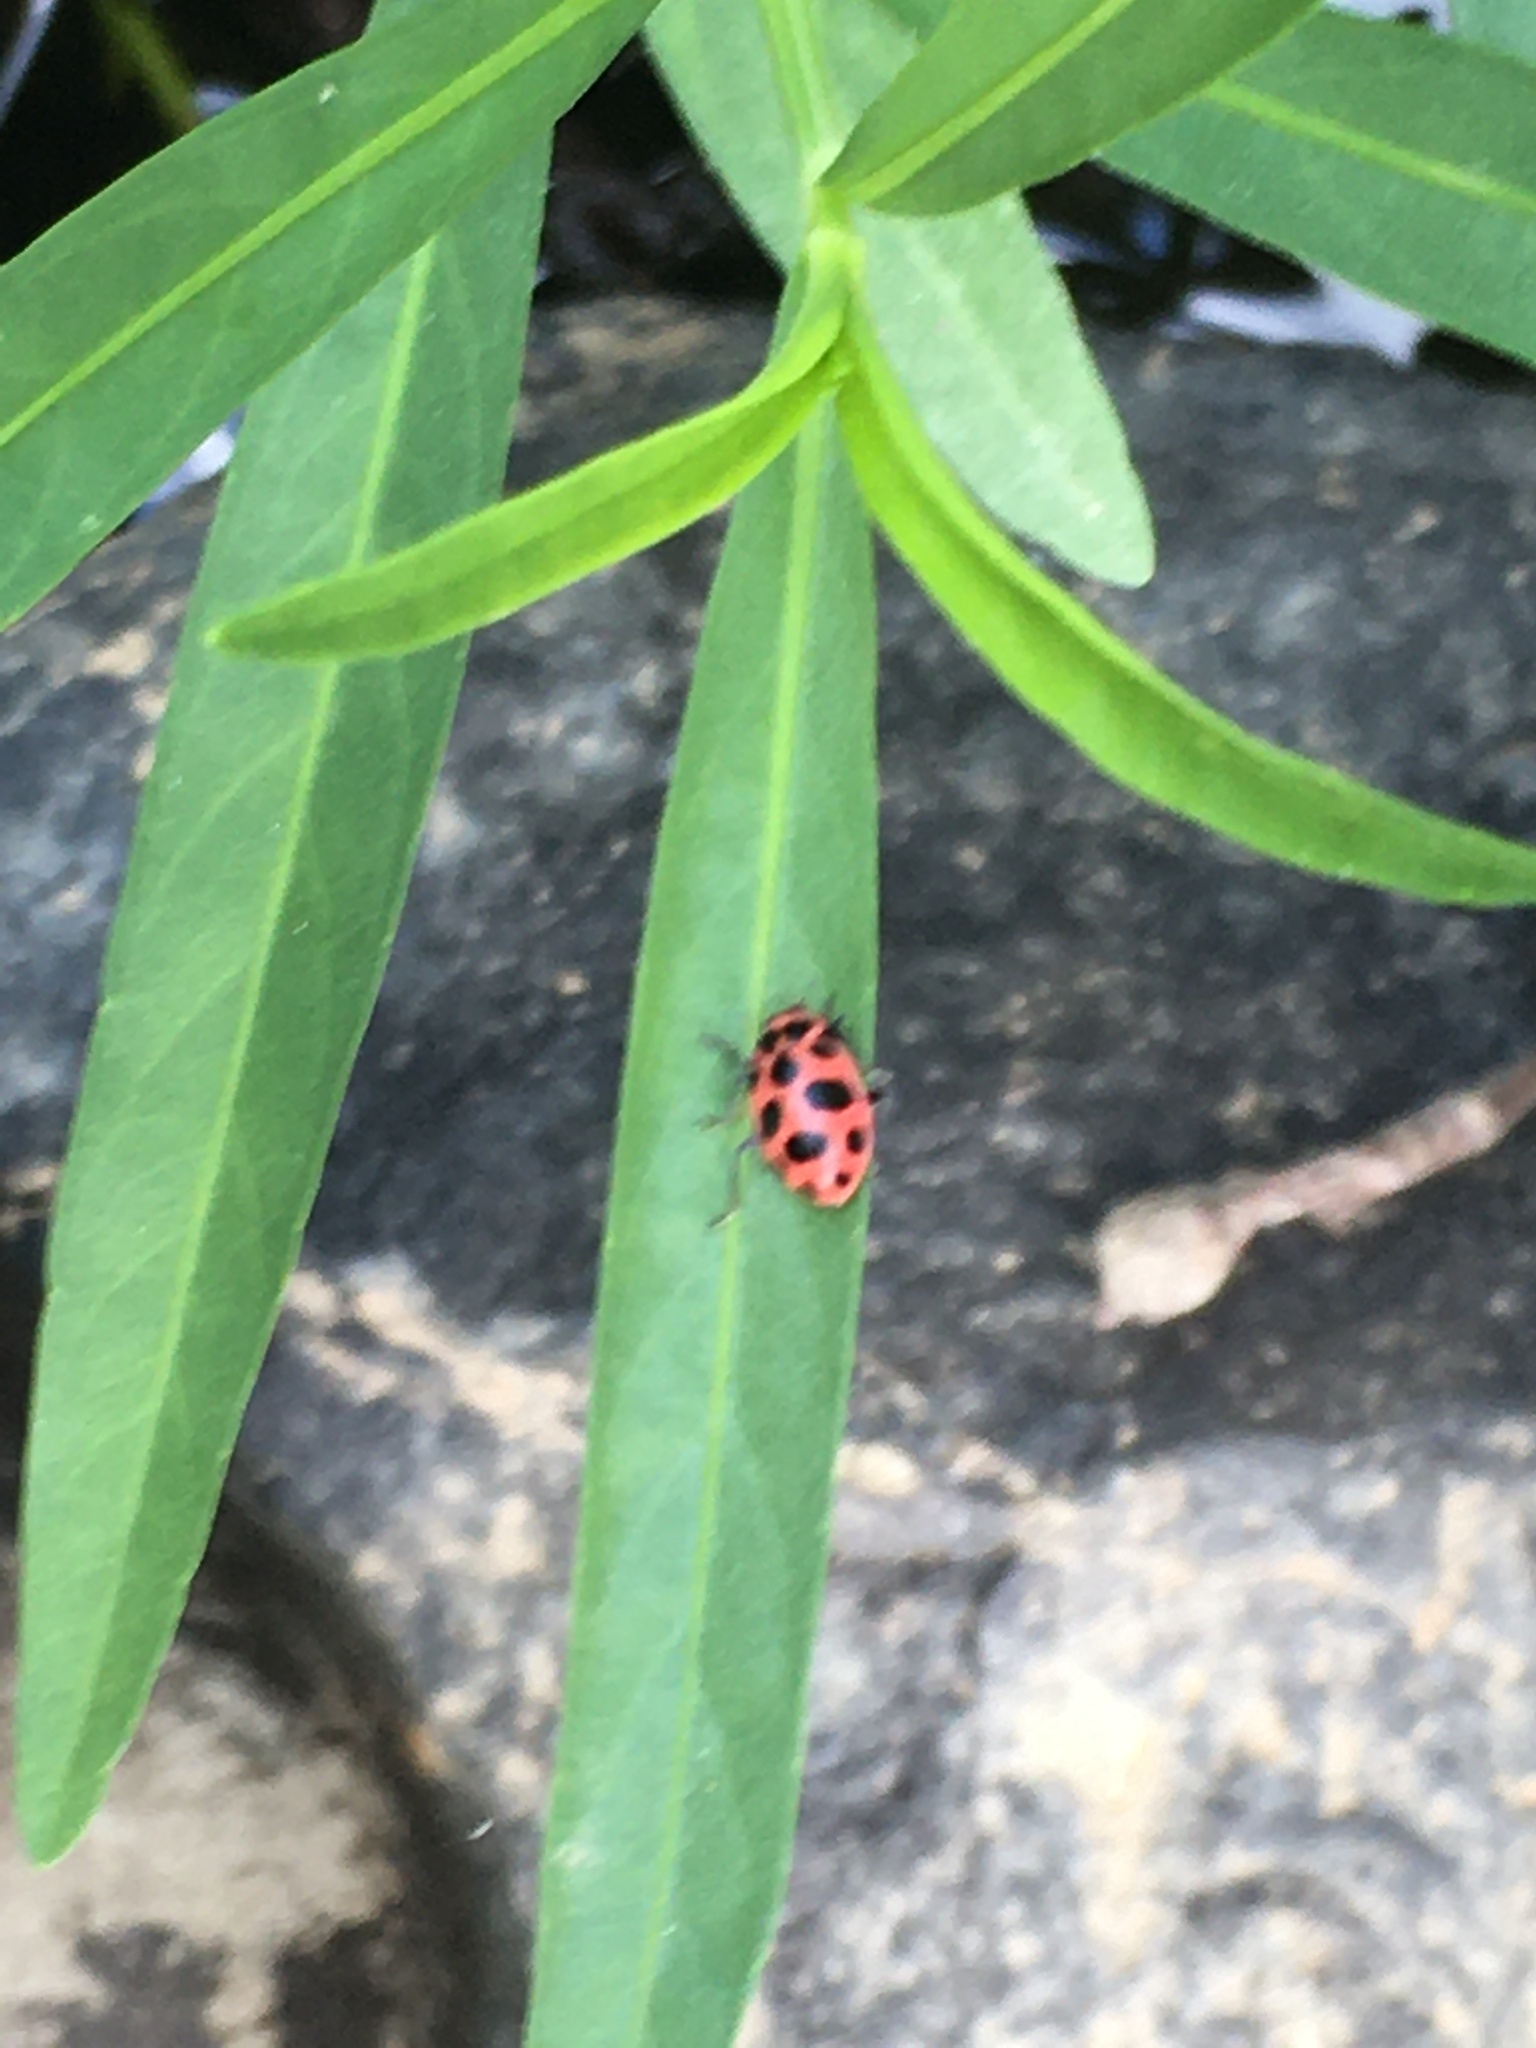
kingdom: Animalia
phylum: Arthropoda
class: Insecta
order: Coleoptera
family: Coccinellidae
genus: Coleomegilla
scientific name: Coleomegilla maculata
